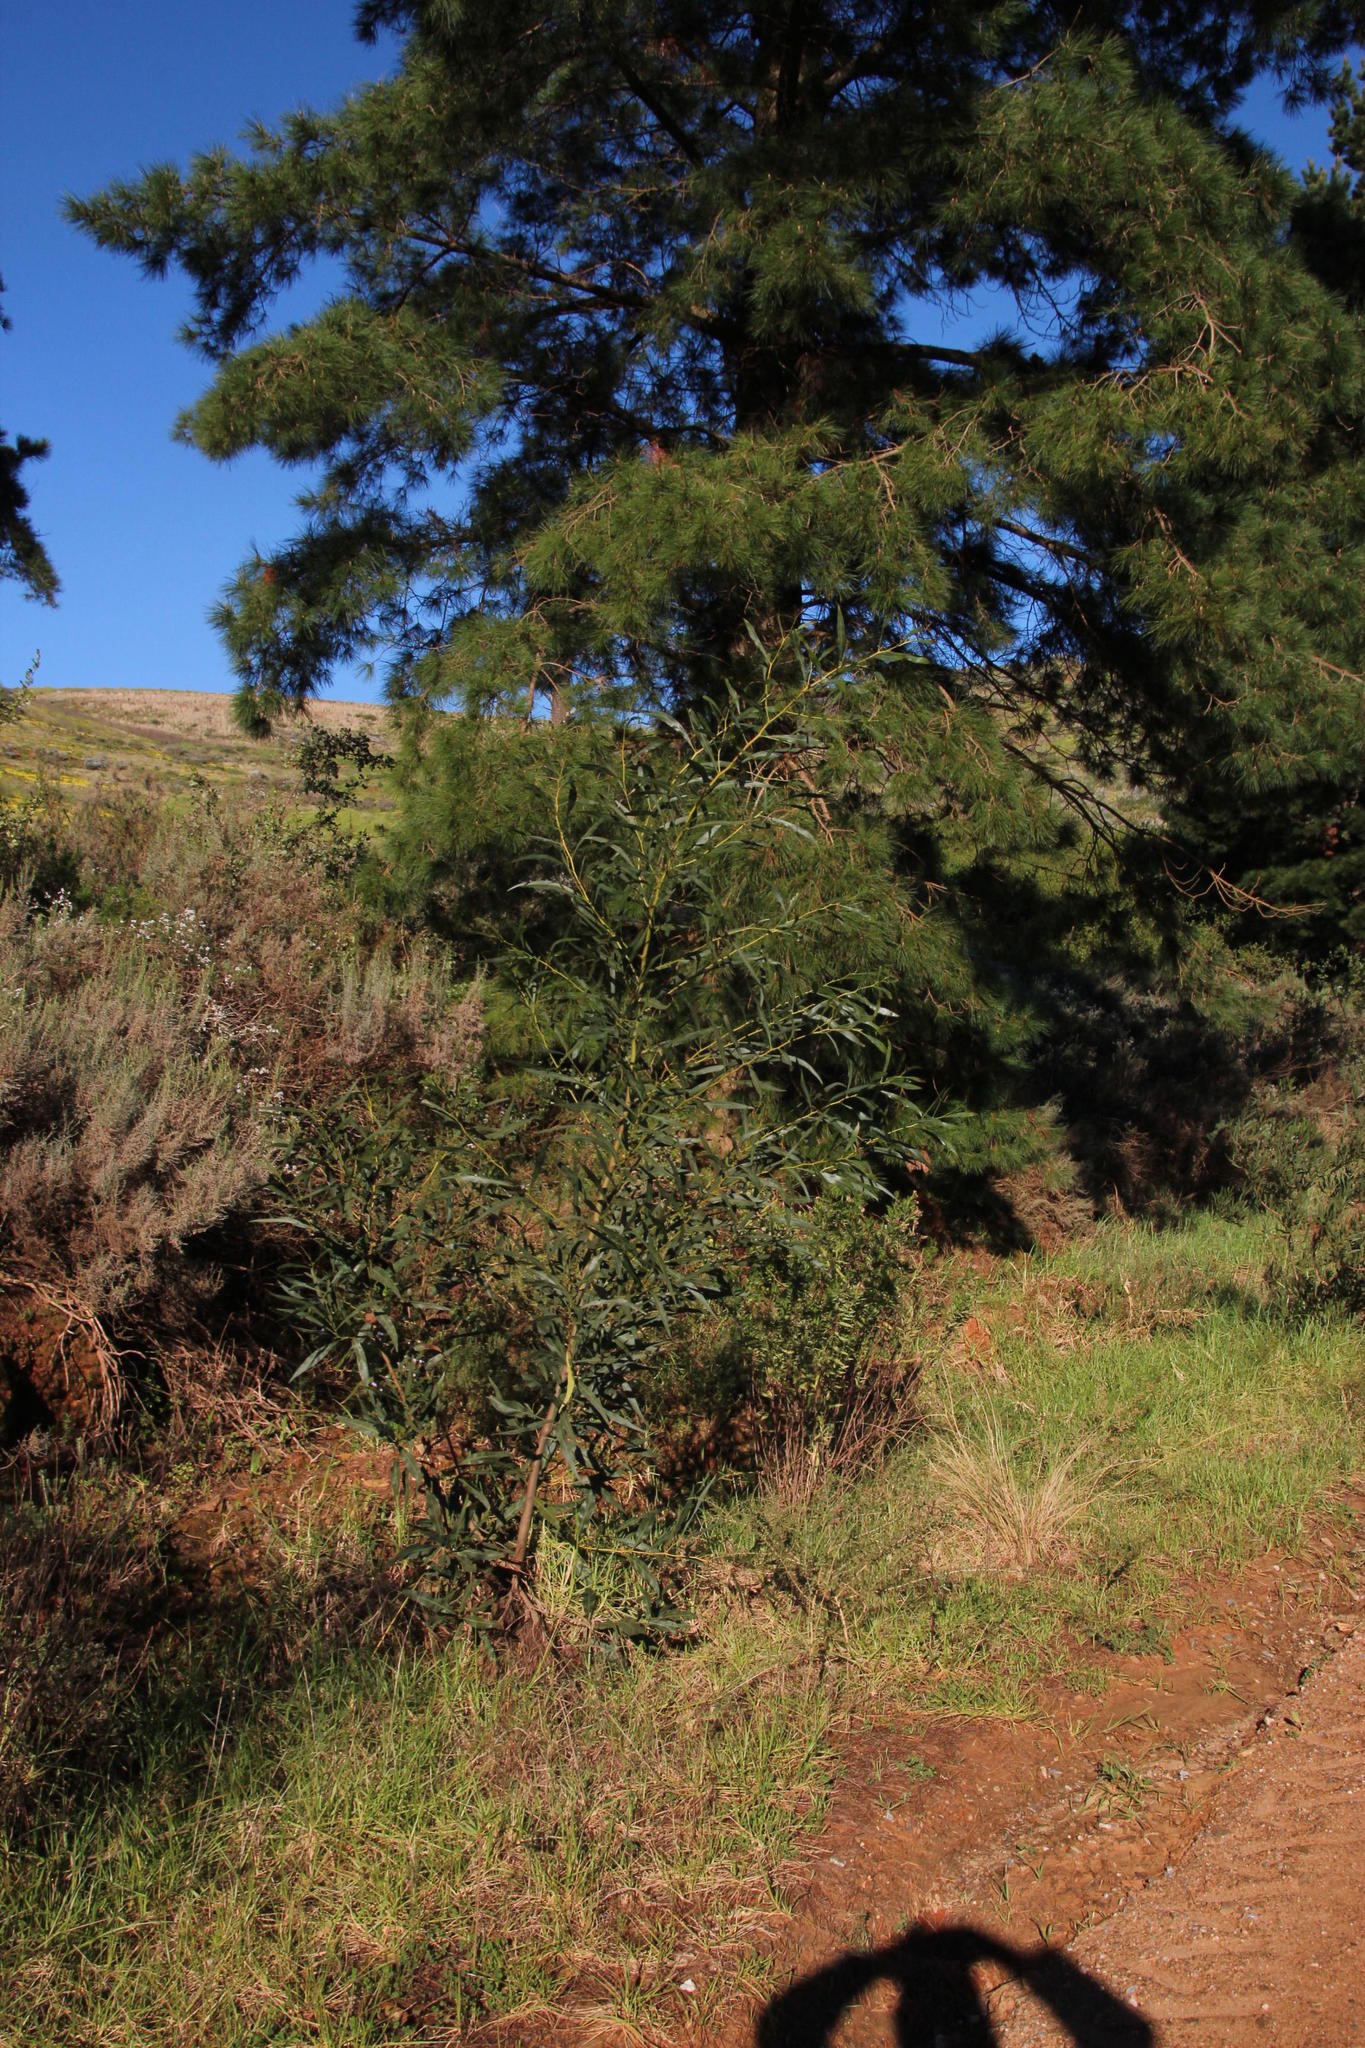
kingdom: Plantae
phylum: Tracheophyta
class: Magnoliopsida
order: Fabales
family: Fabaceae
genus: Acacia
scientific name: Acacia saligna
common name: Orange wattle
